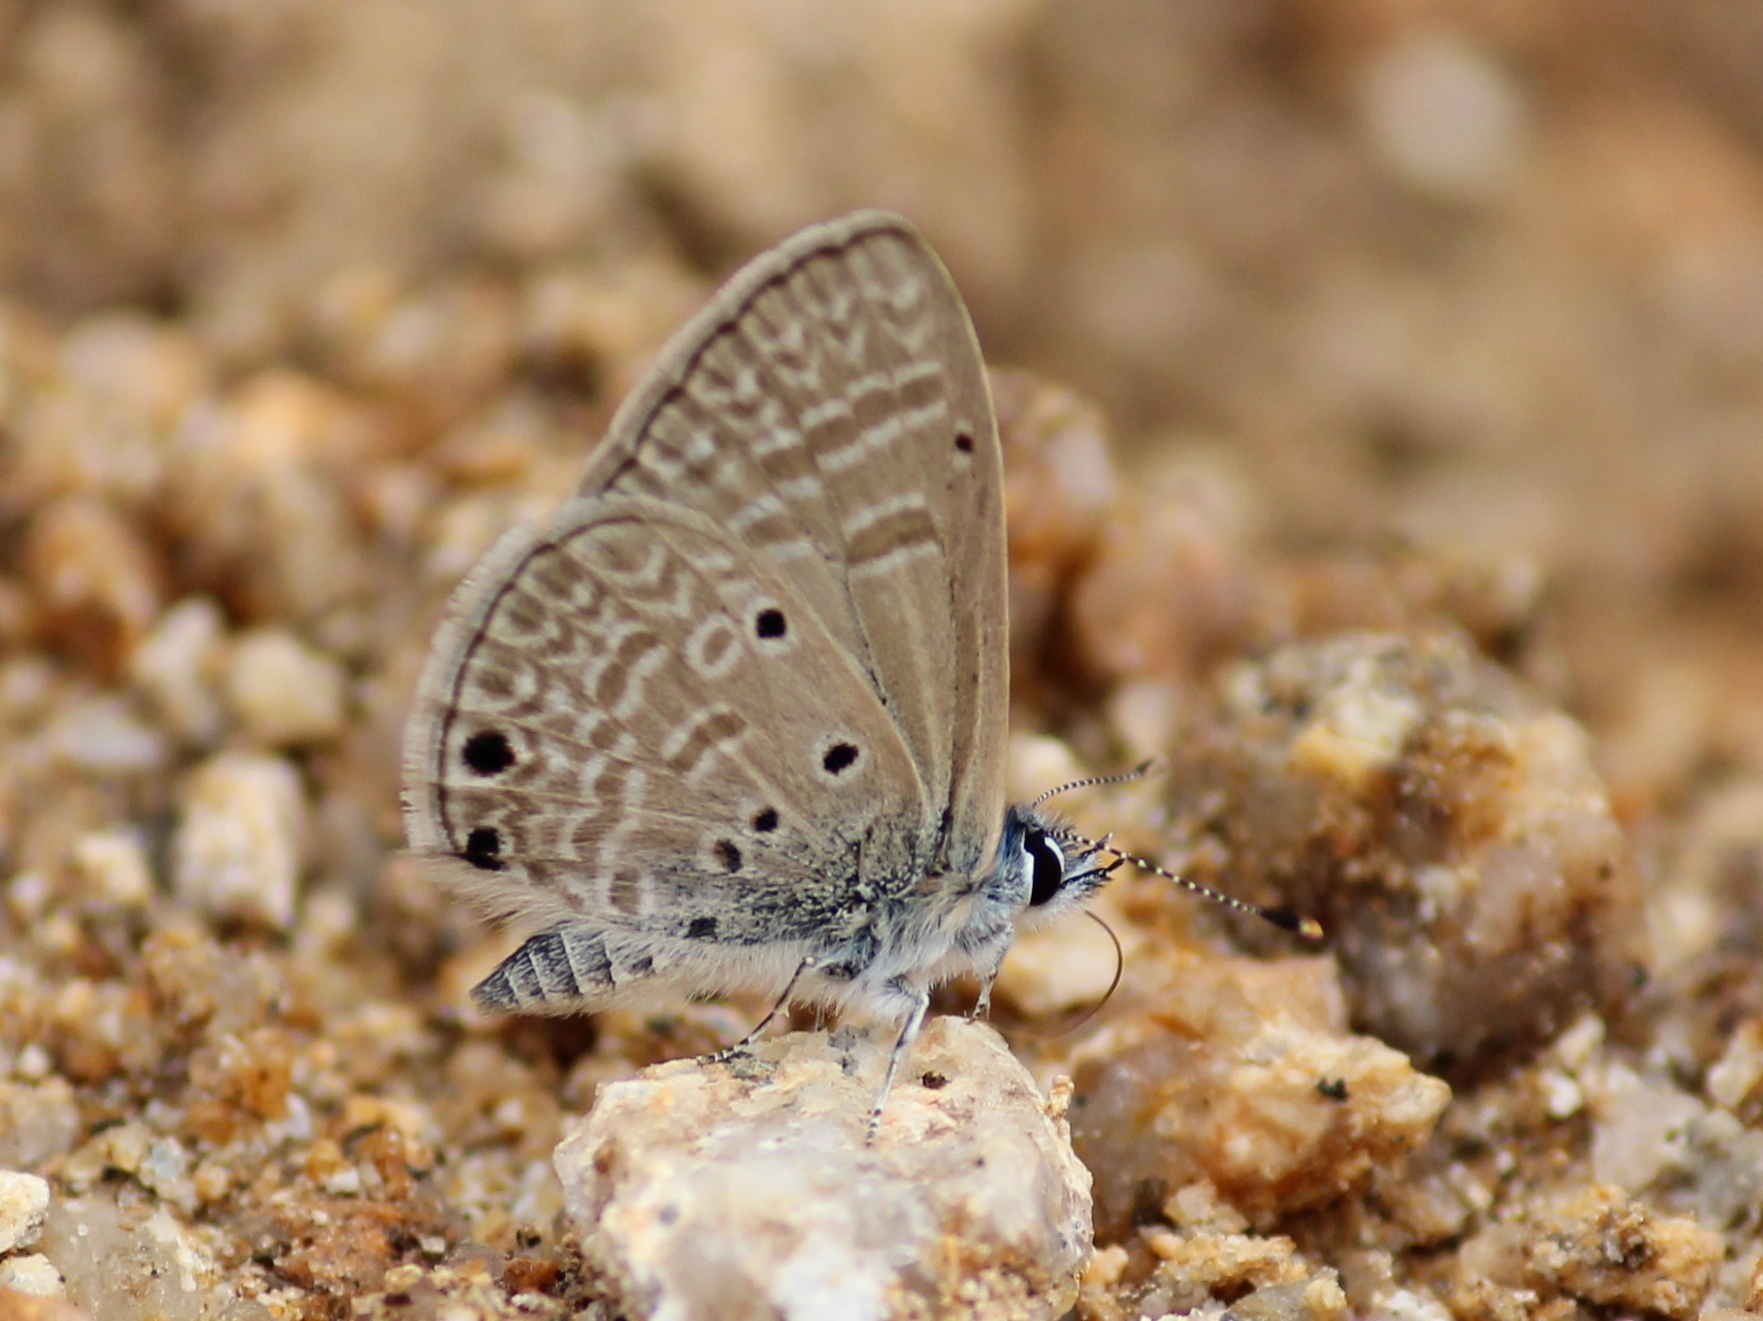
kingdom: Animalia
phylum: Arthropoda
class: Insecta
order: Lepidoptera
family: Lycaenidae
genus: Azanus
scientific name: Azanus ubaldus
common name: Desert babul blue
